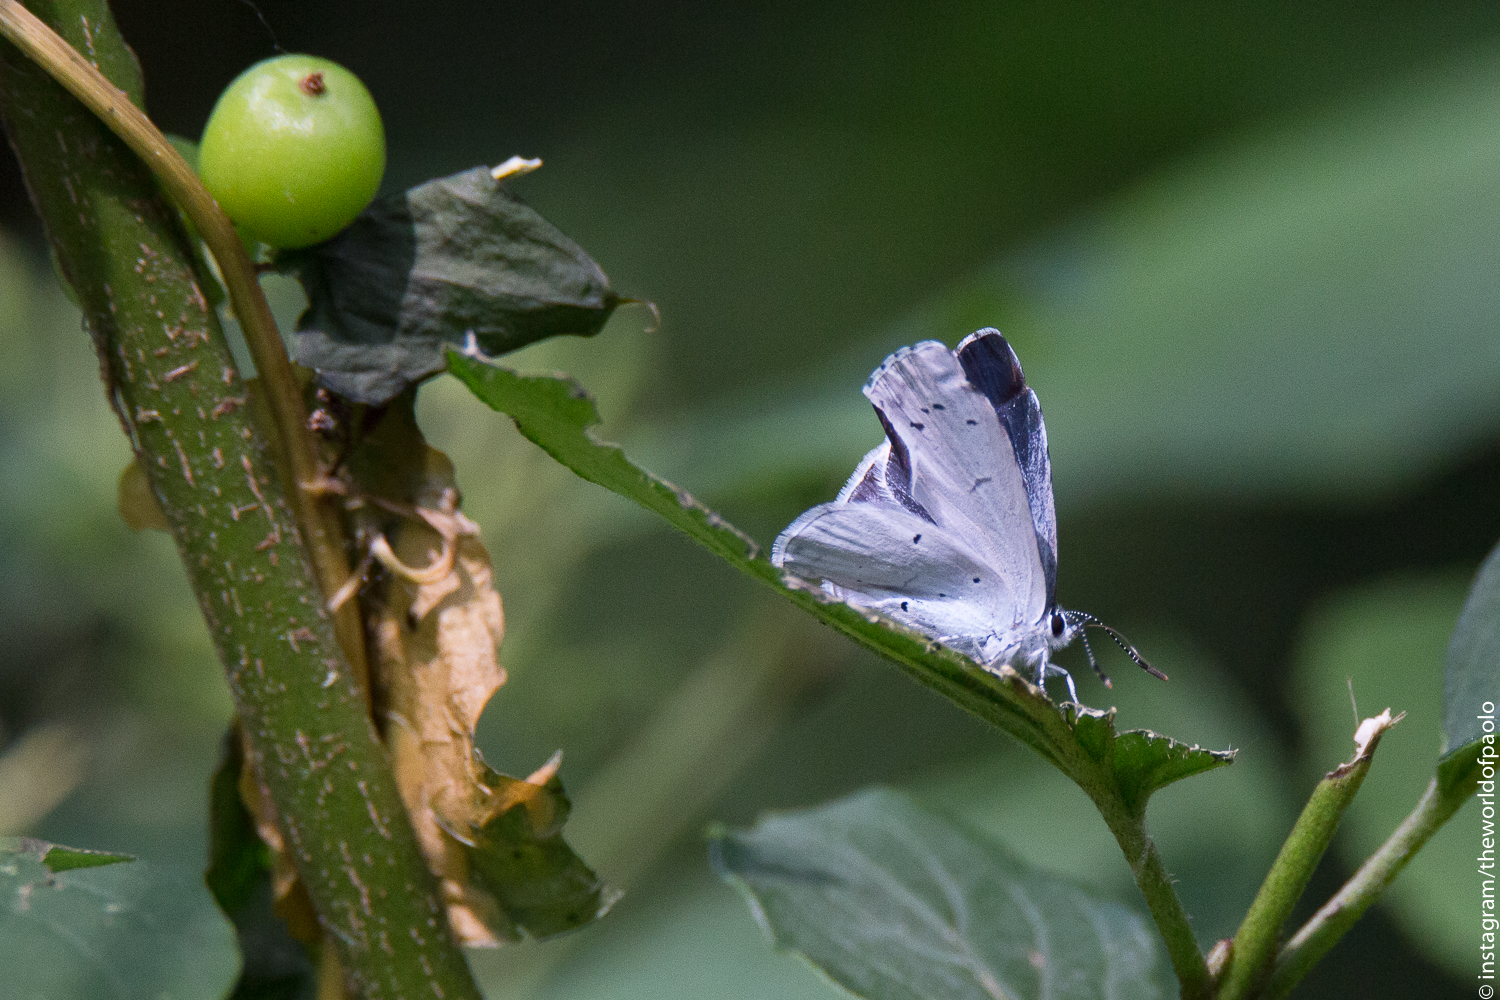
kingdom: Animalia
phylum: Arthropoda
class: Insecta
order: Lepidoptera
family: Lycaenidae
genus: Celastrina
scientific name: Celastrina argiolus
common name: Holly blue
